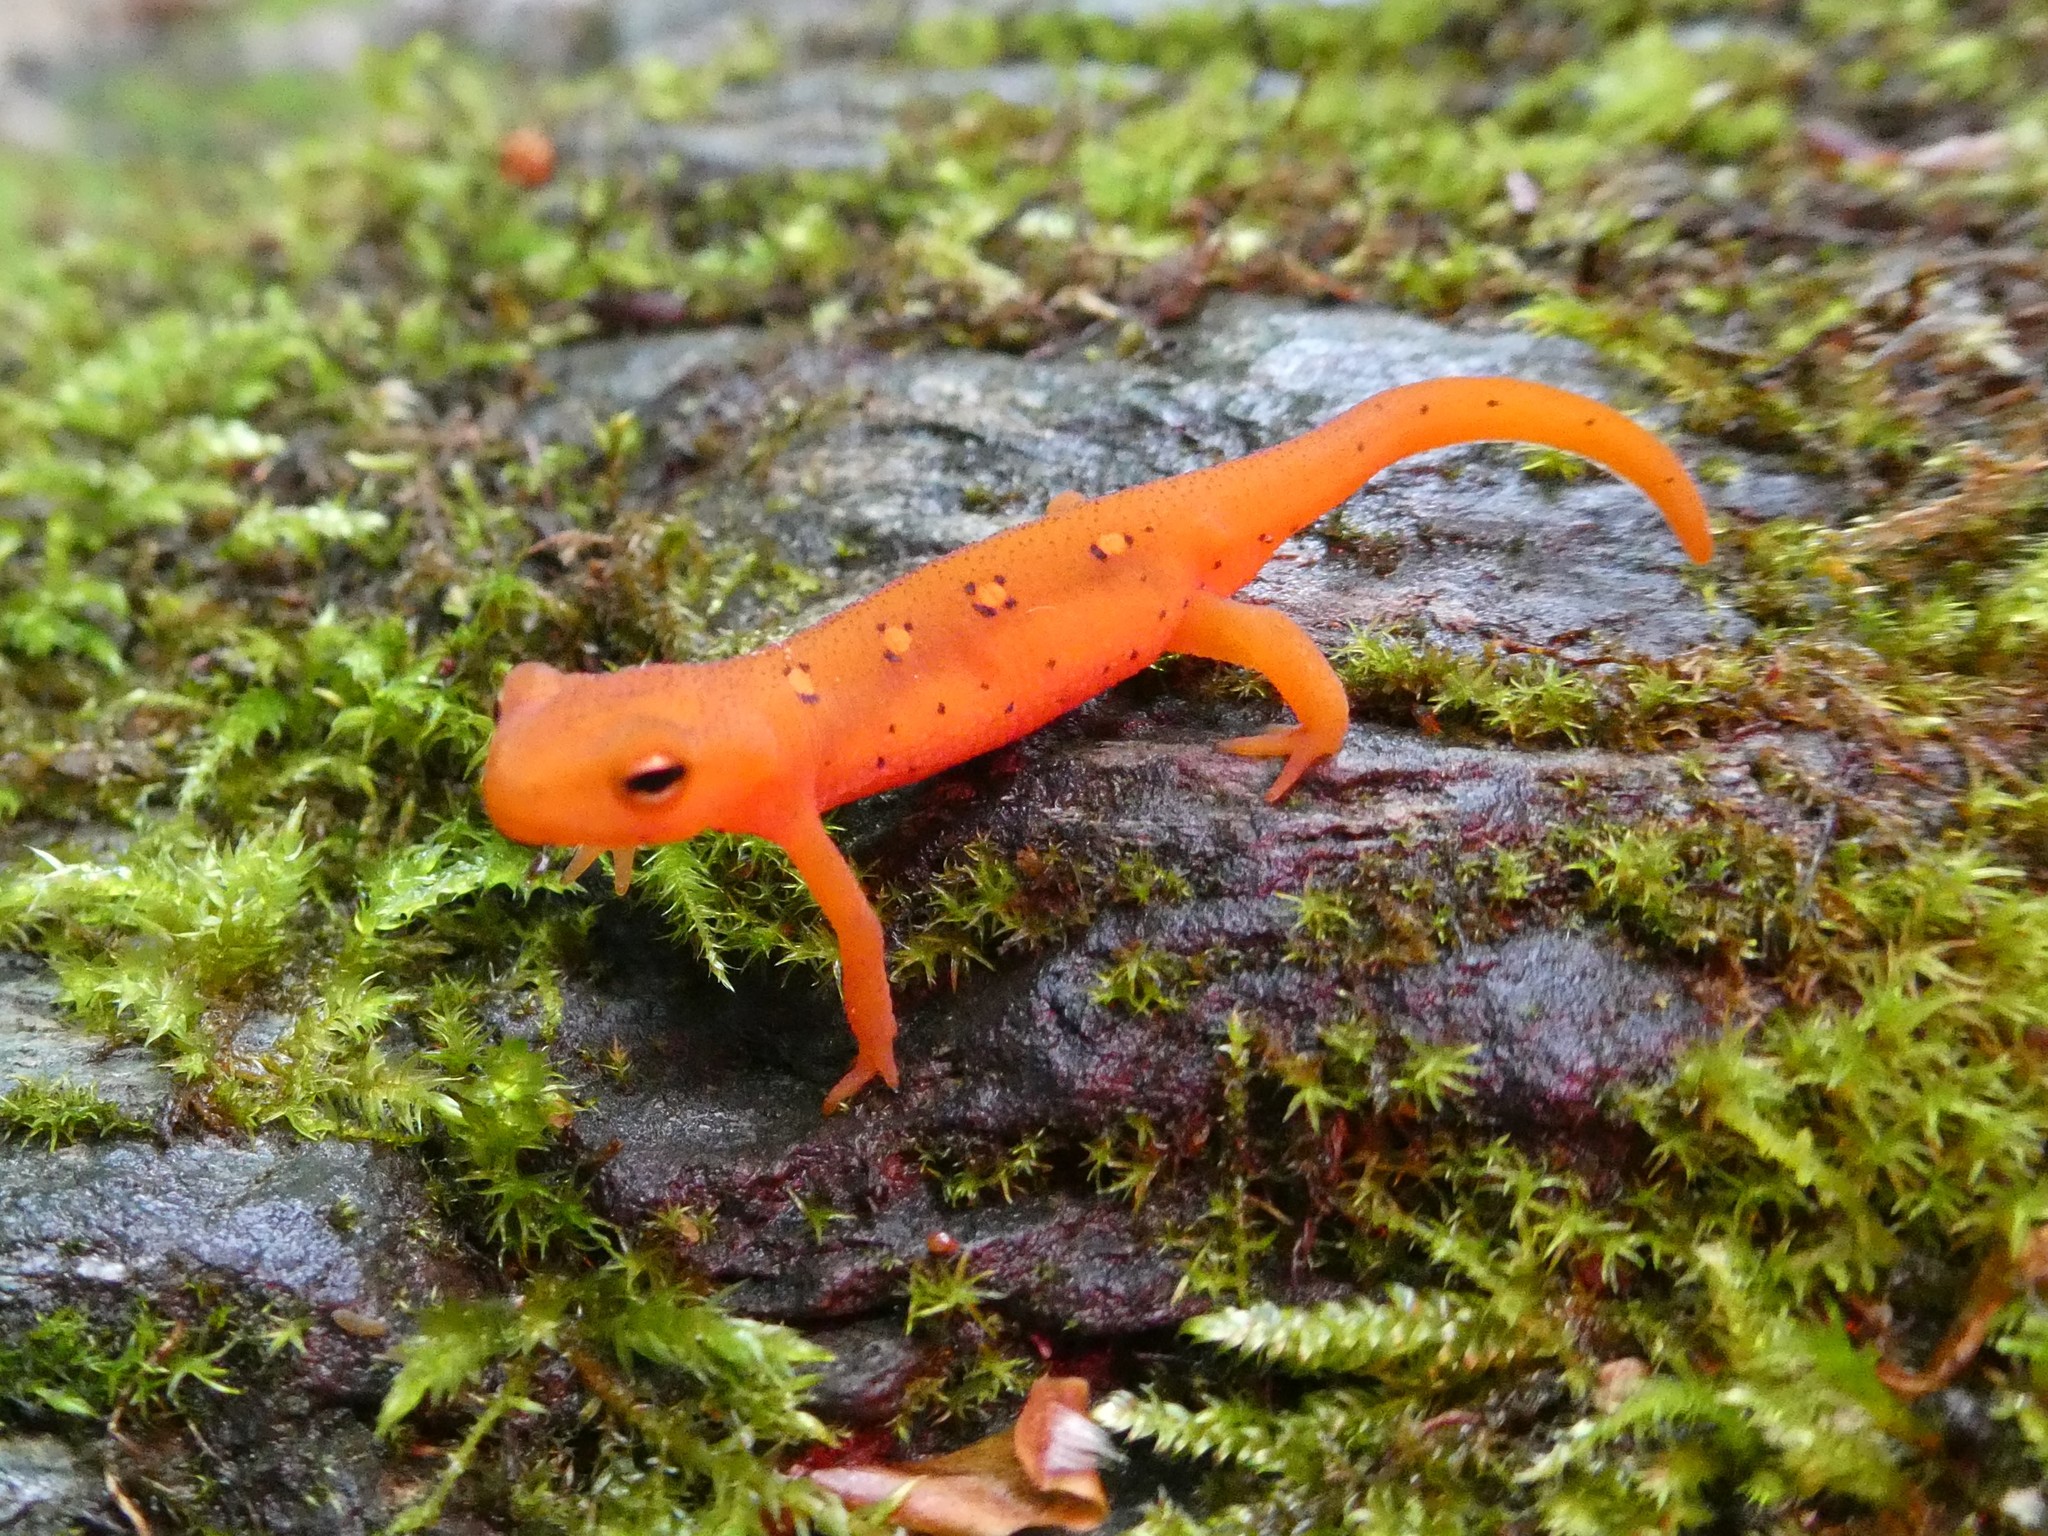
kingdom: Animalia
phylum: Chordata
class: Amphibia
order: Caudata
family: Salamandridae
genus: Notophthalmus
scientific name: Notophthalmus viridescens
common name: Eastern newt
